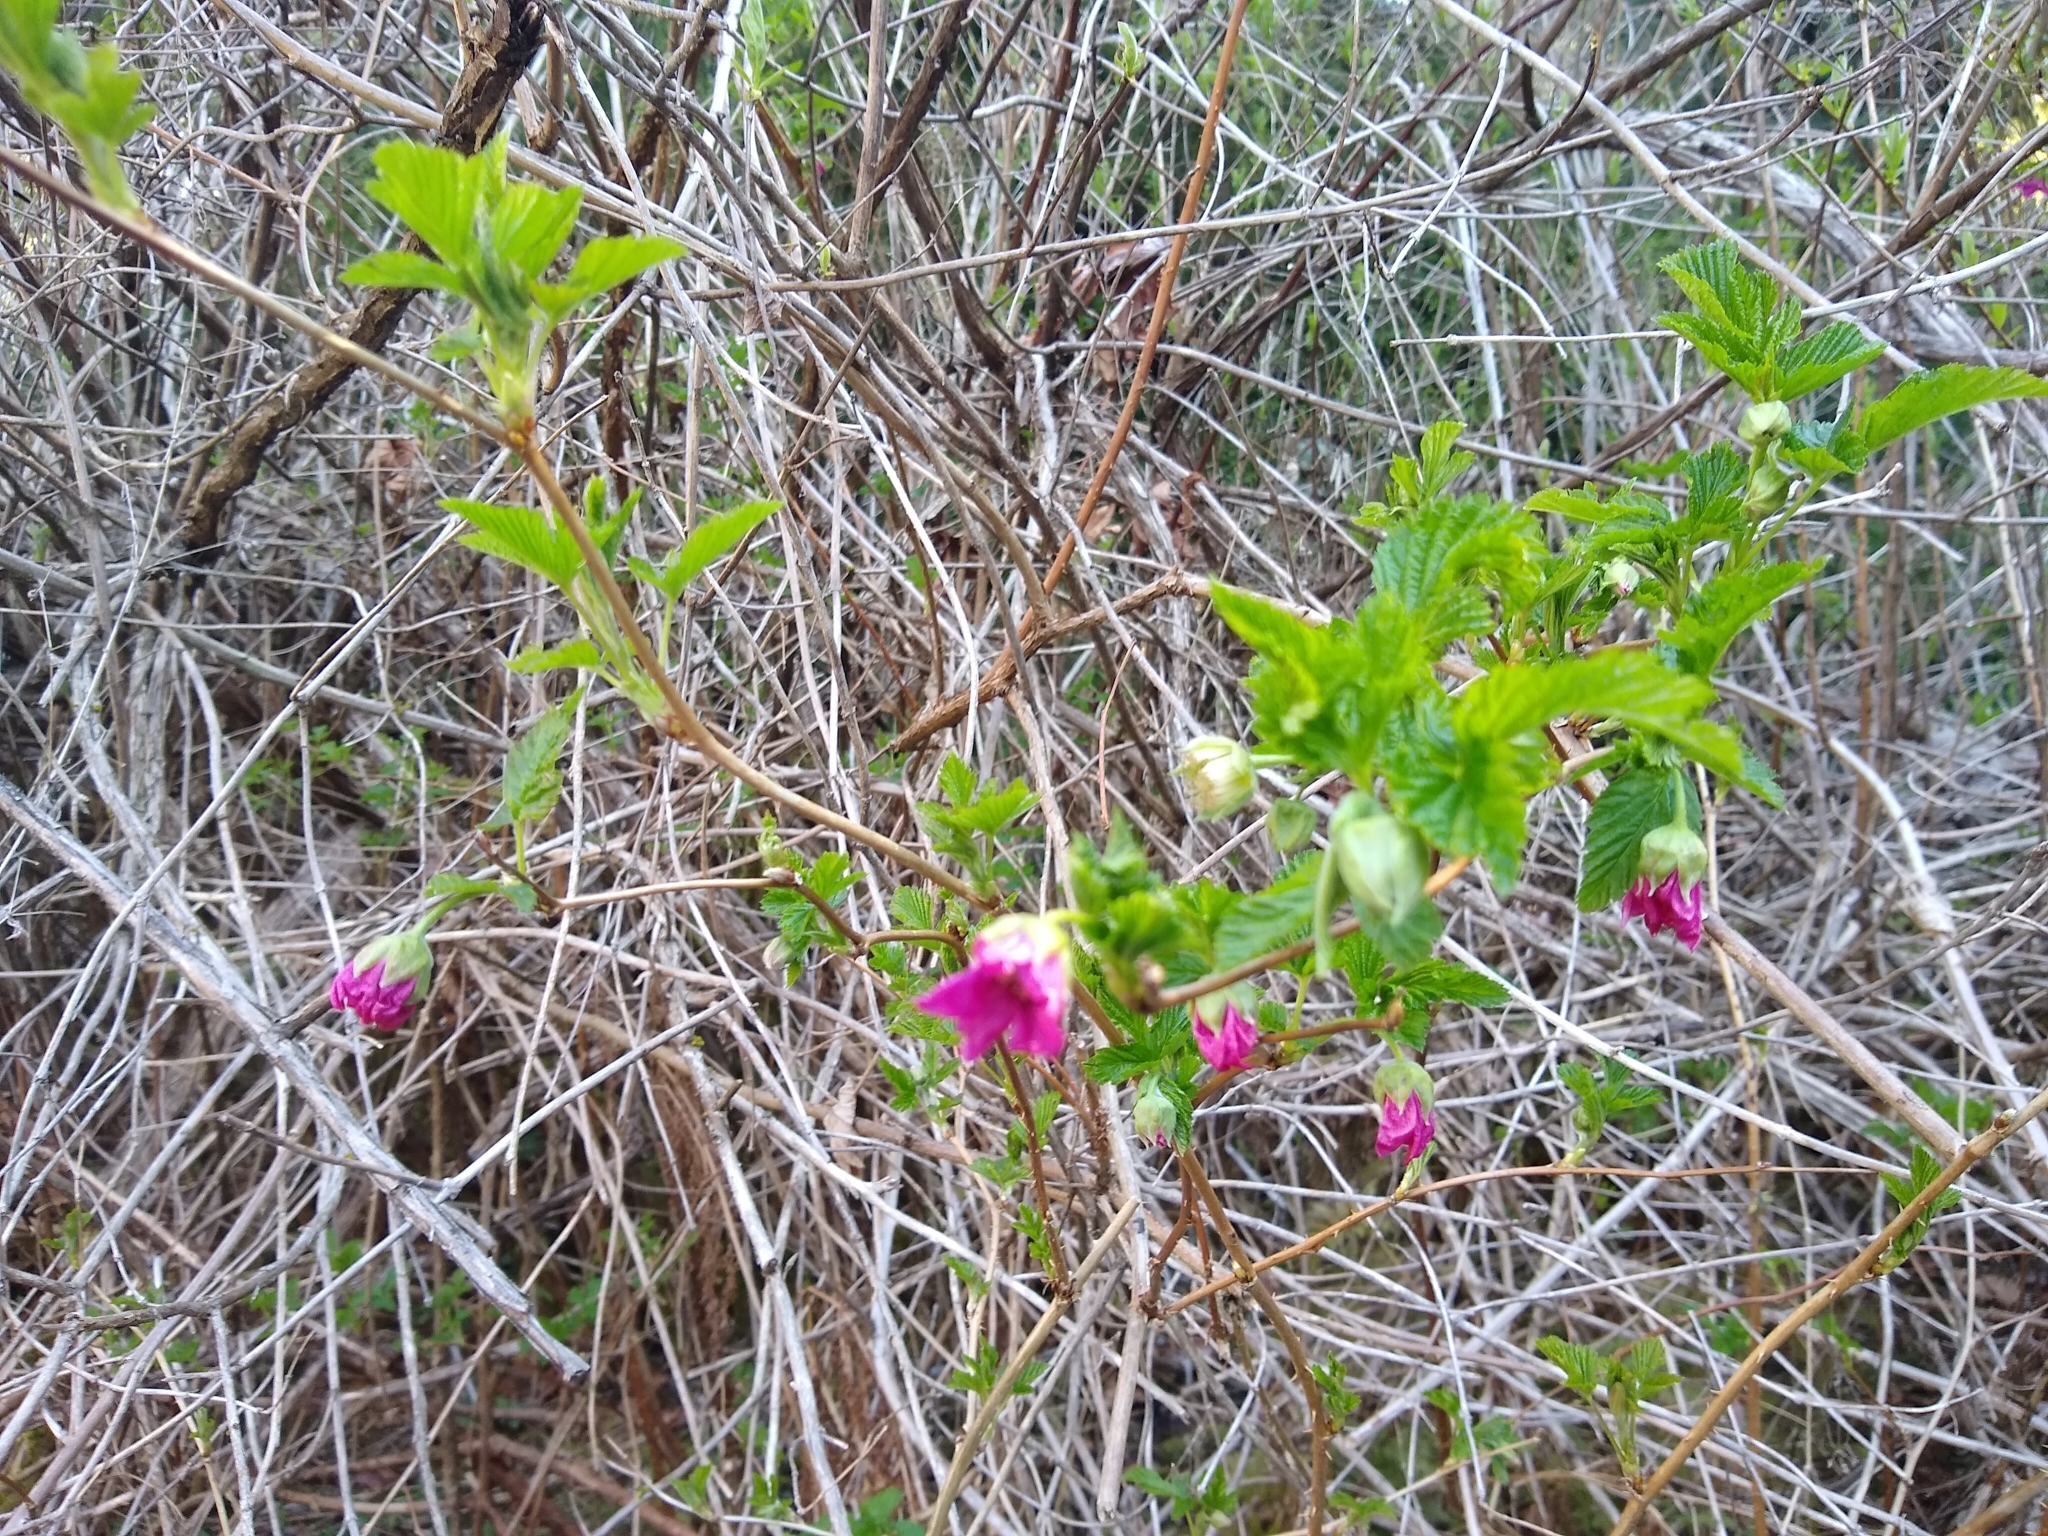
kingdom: Plantae
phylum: Tracheophyta
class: Magnoliopsida
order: Rosales
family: Rosaceae
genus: Rubus
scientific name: Rubus spectabilis
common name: Salmonberry
